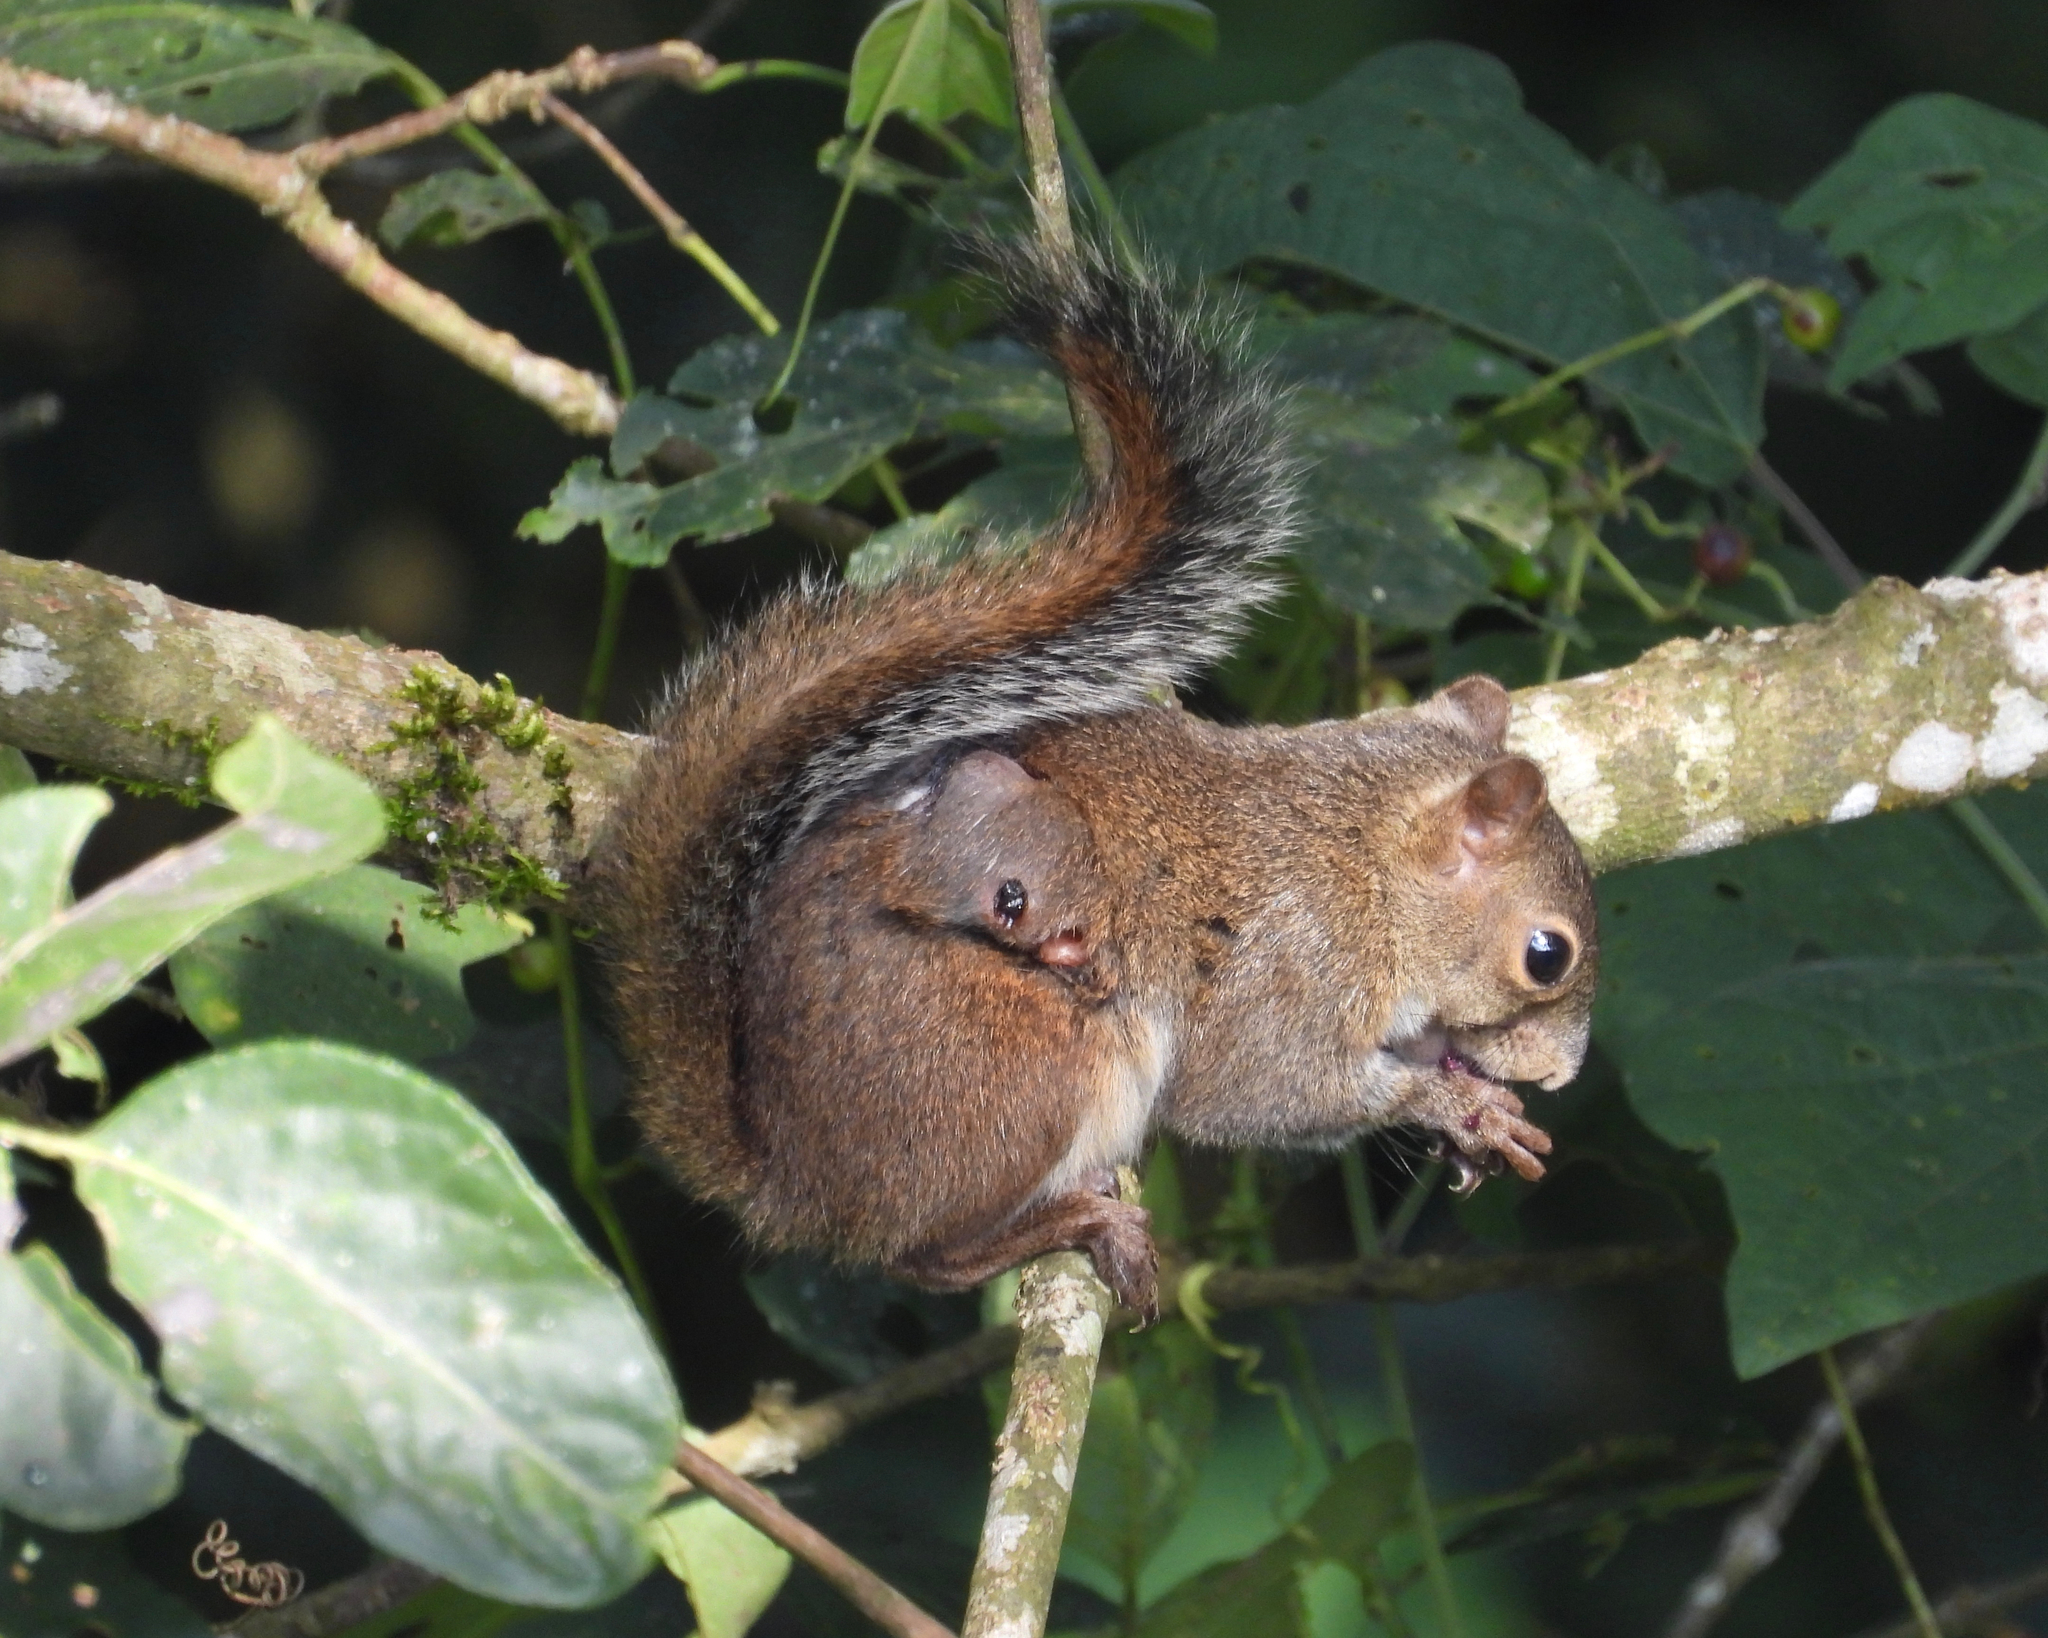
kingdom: Animalia
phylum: Chordata
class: Mammalia
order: Rodentia
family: Sciuridae
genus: Sciurus
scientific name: Sciurus deppei
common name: Deppe's squirrel
